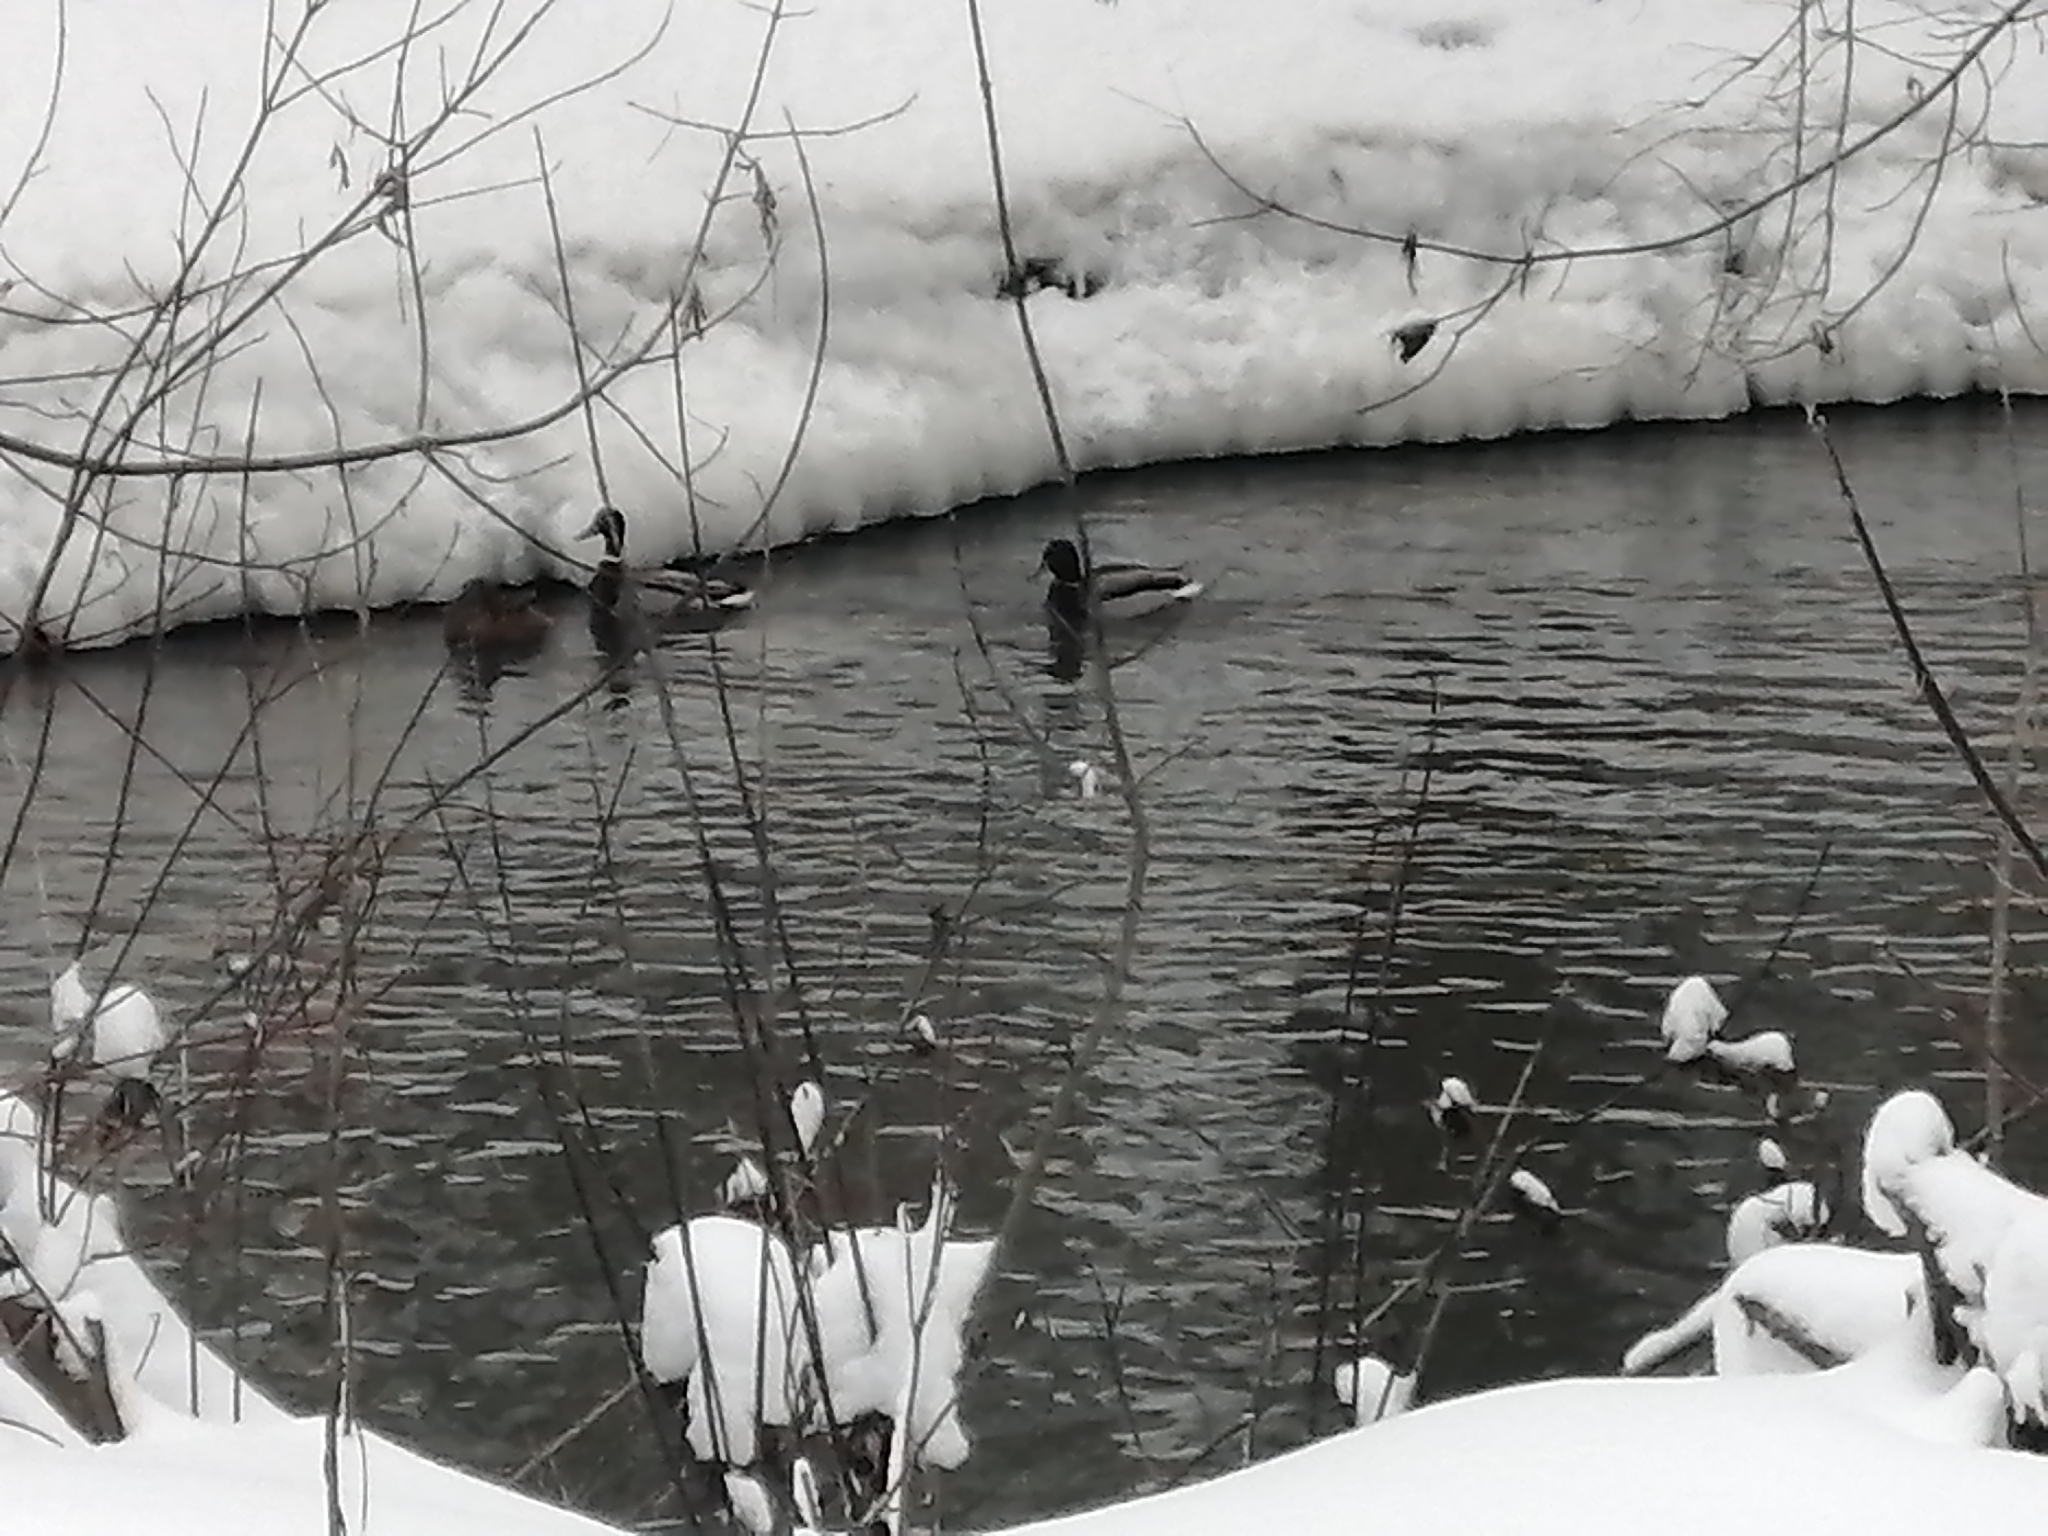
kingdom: Animalia
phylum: Chordata
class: Aves
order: Anseriformes
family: Anatidae
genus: Anas
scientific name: Anas platyrhynchos
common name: Mallard
